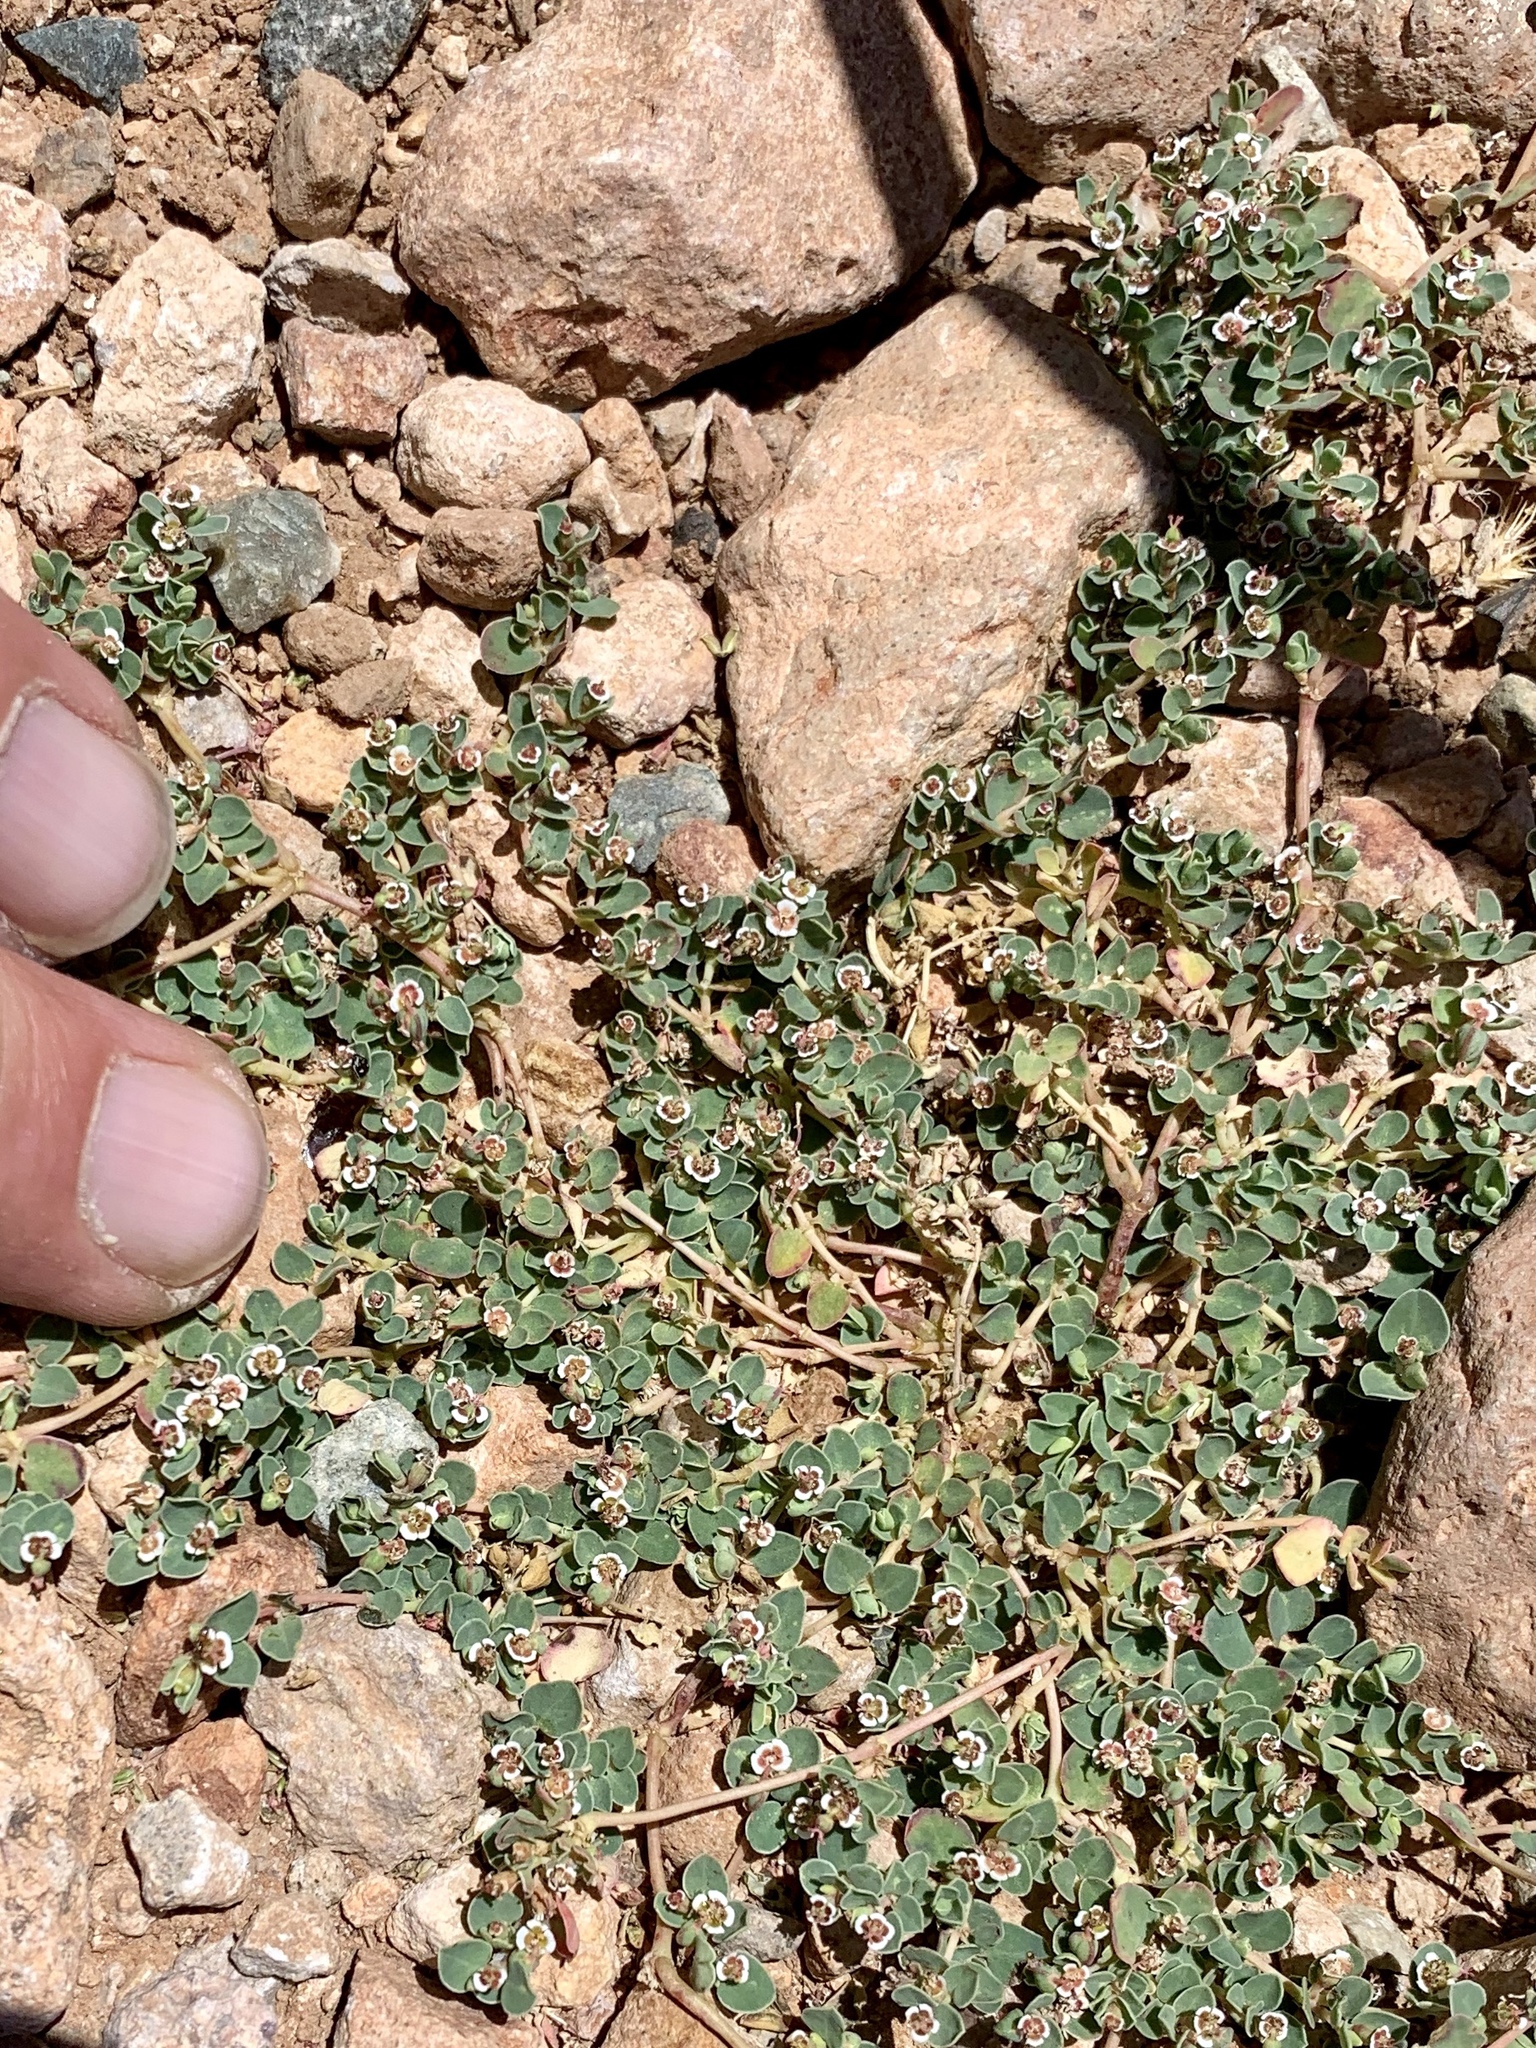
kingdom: Plantae
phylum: Tracheophyta
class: Magnoliopsida
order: Malpighiales
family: Euphorbiaceae
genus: Euphorbia
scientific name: Euphorbia albomarginata
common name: Whitemargin sandmat
